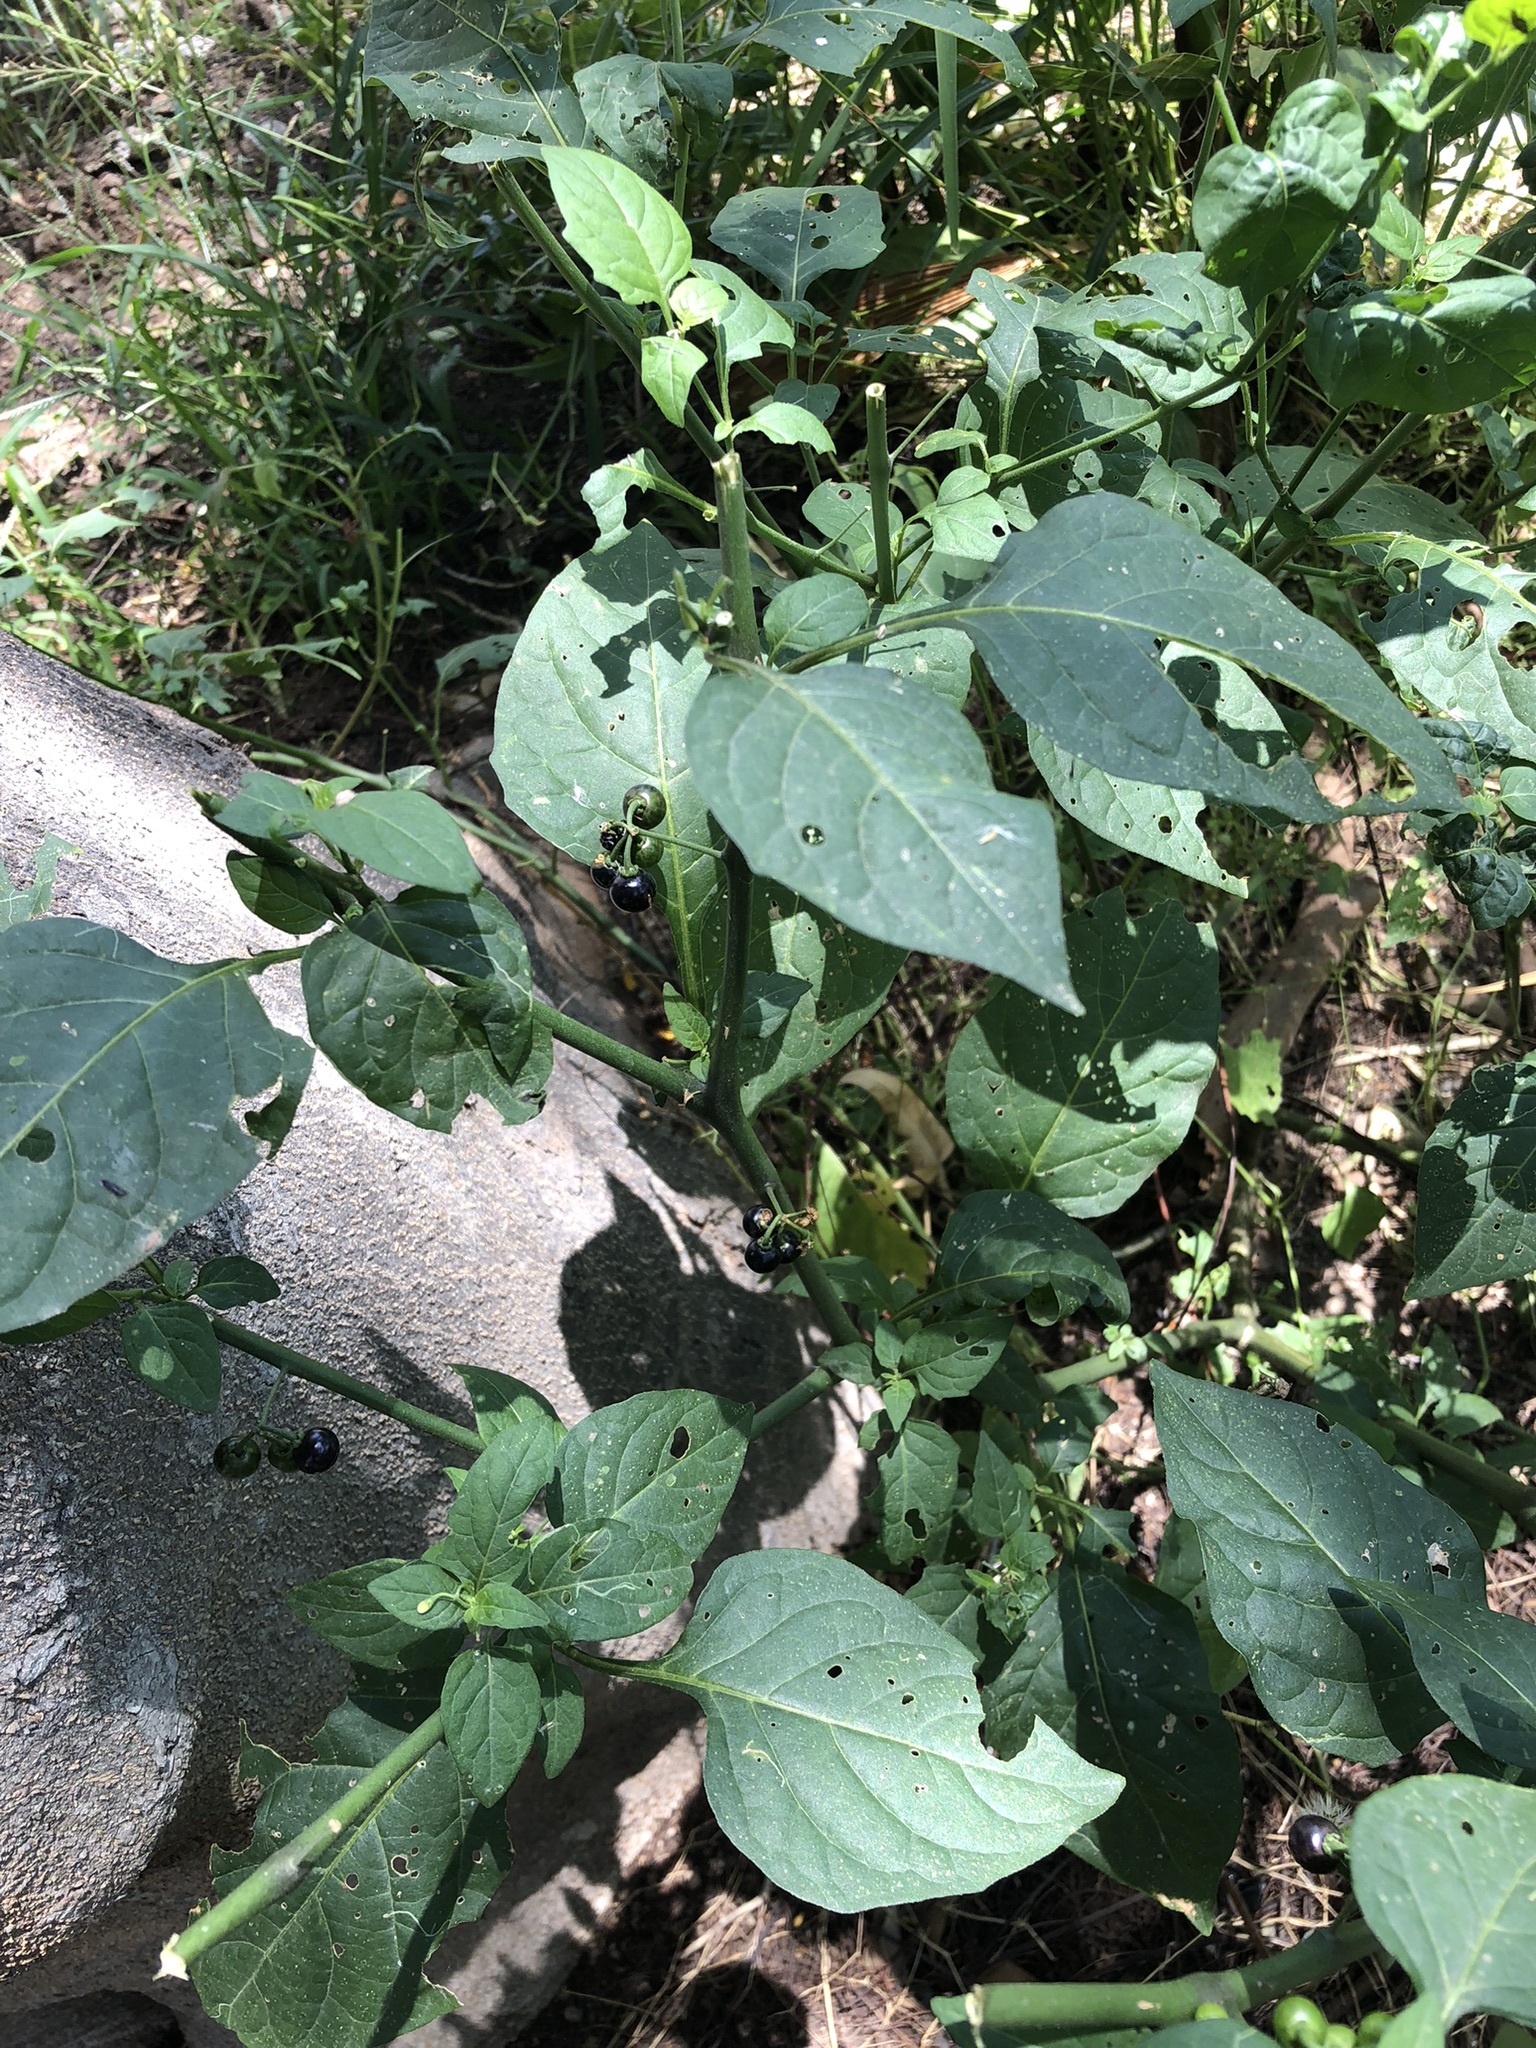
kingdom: Plantae
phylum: Tracheophyta
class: Magnoliopsida
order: Solanales
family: Solanaceae
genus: Solanum
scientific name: Solanum americanum
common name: American black nightshade
